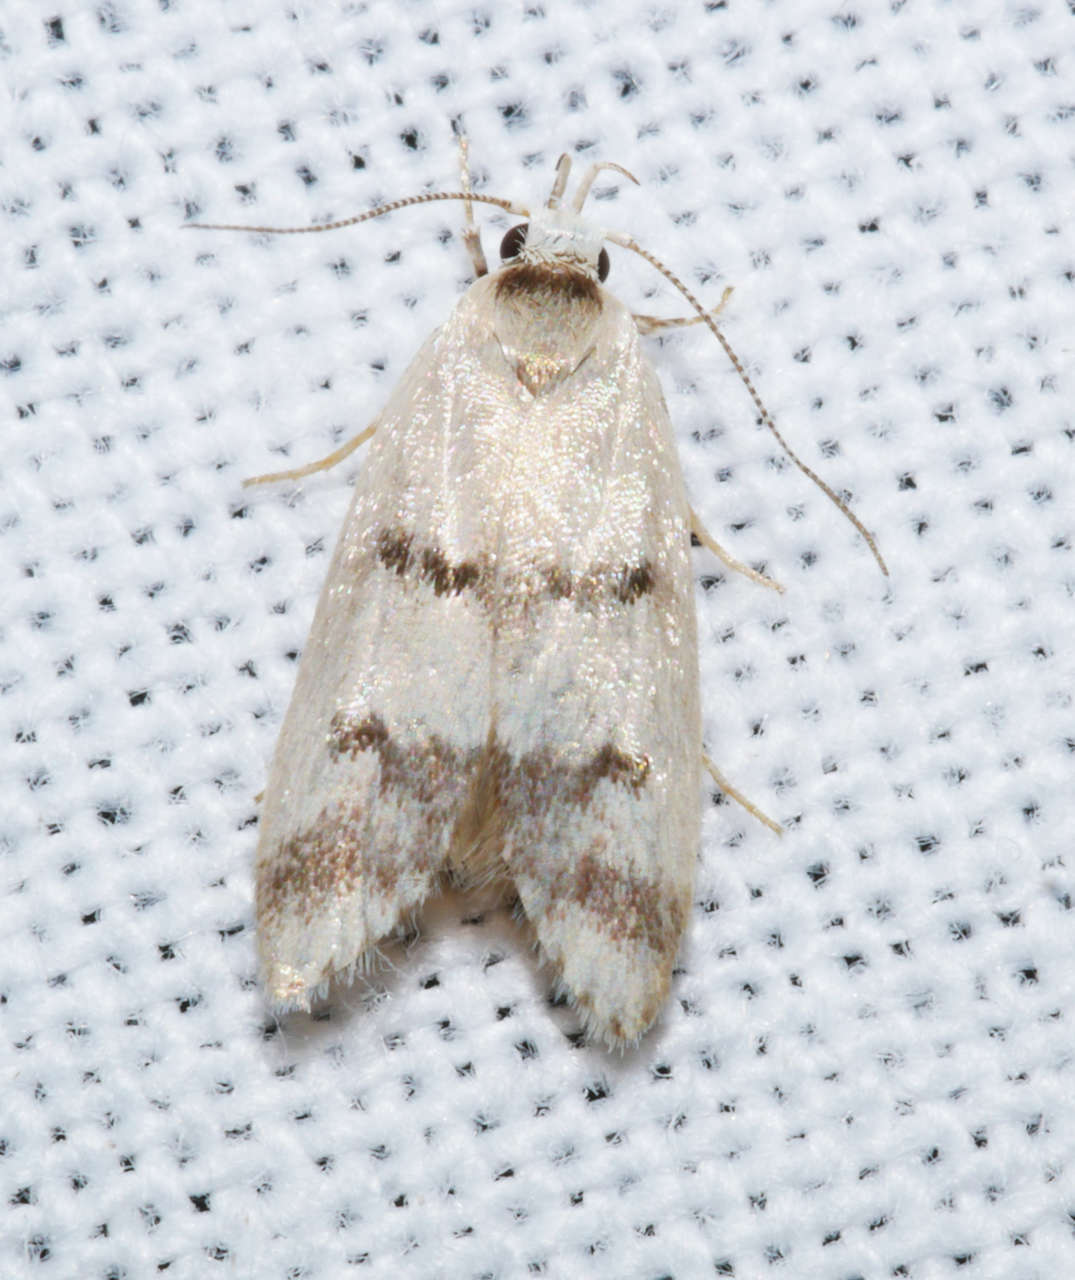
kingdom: Animalia
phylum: Arthropoda
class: Insecta
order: Lepidoptera
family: Oecophoridae
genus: Compsotropha
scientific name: Compsotropha strophiella
